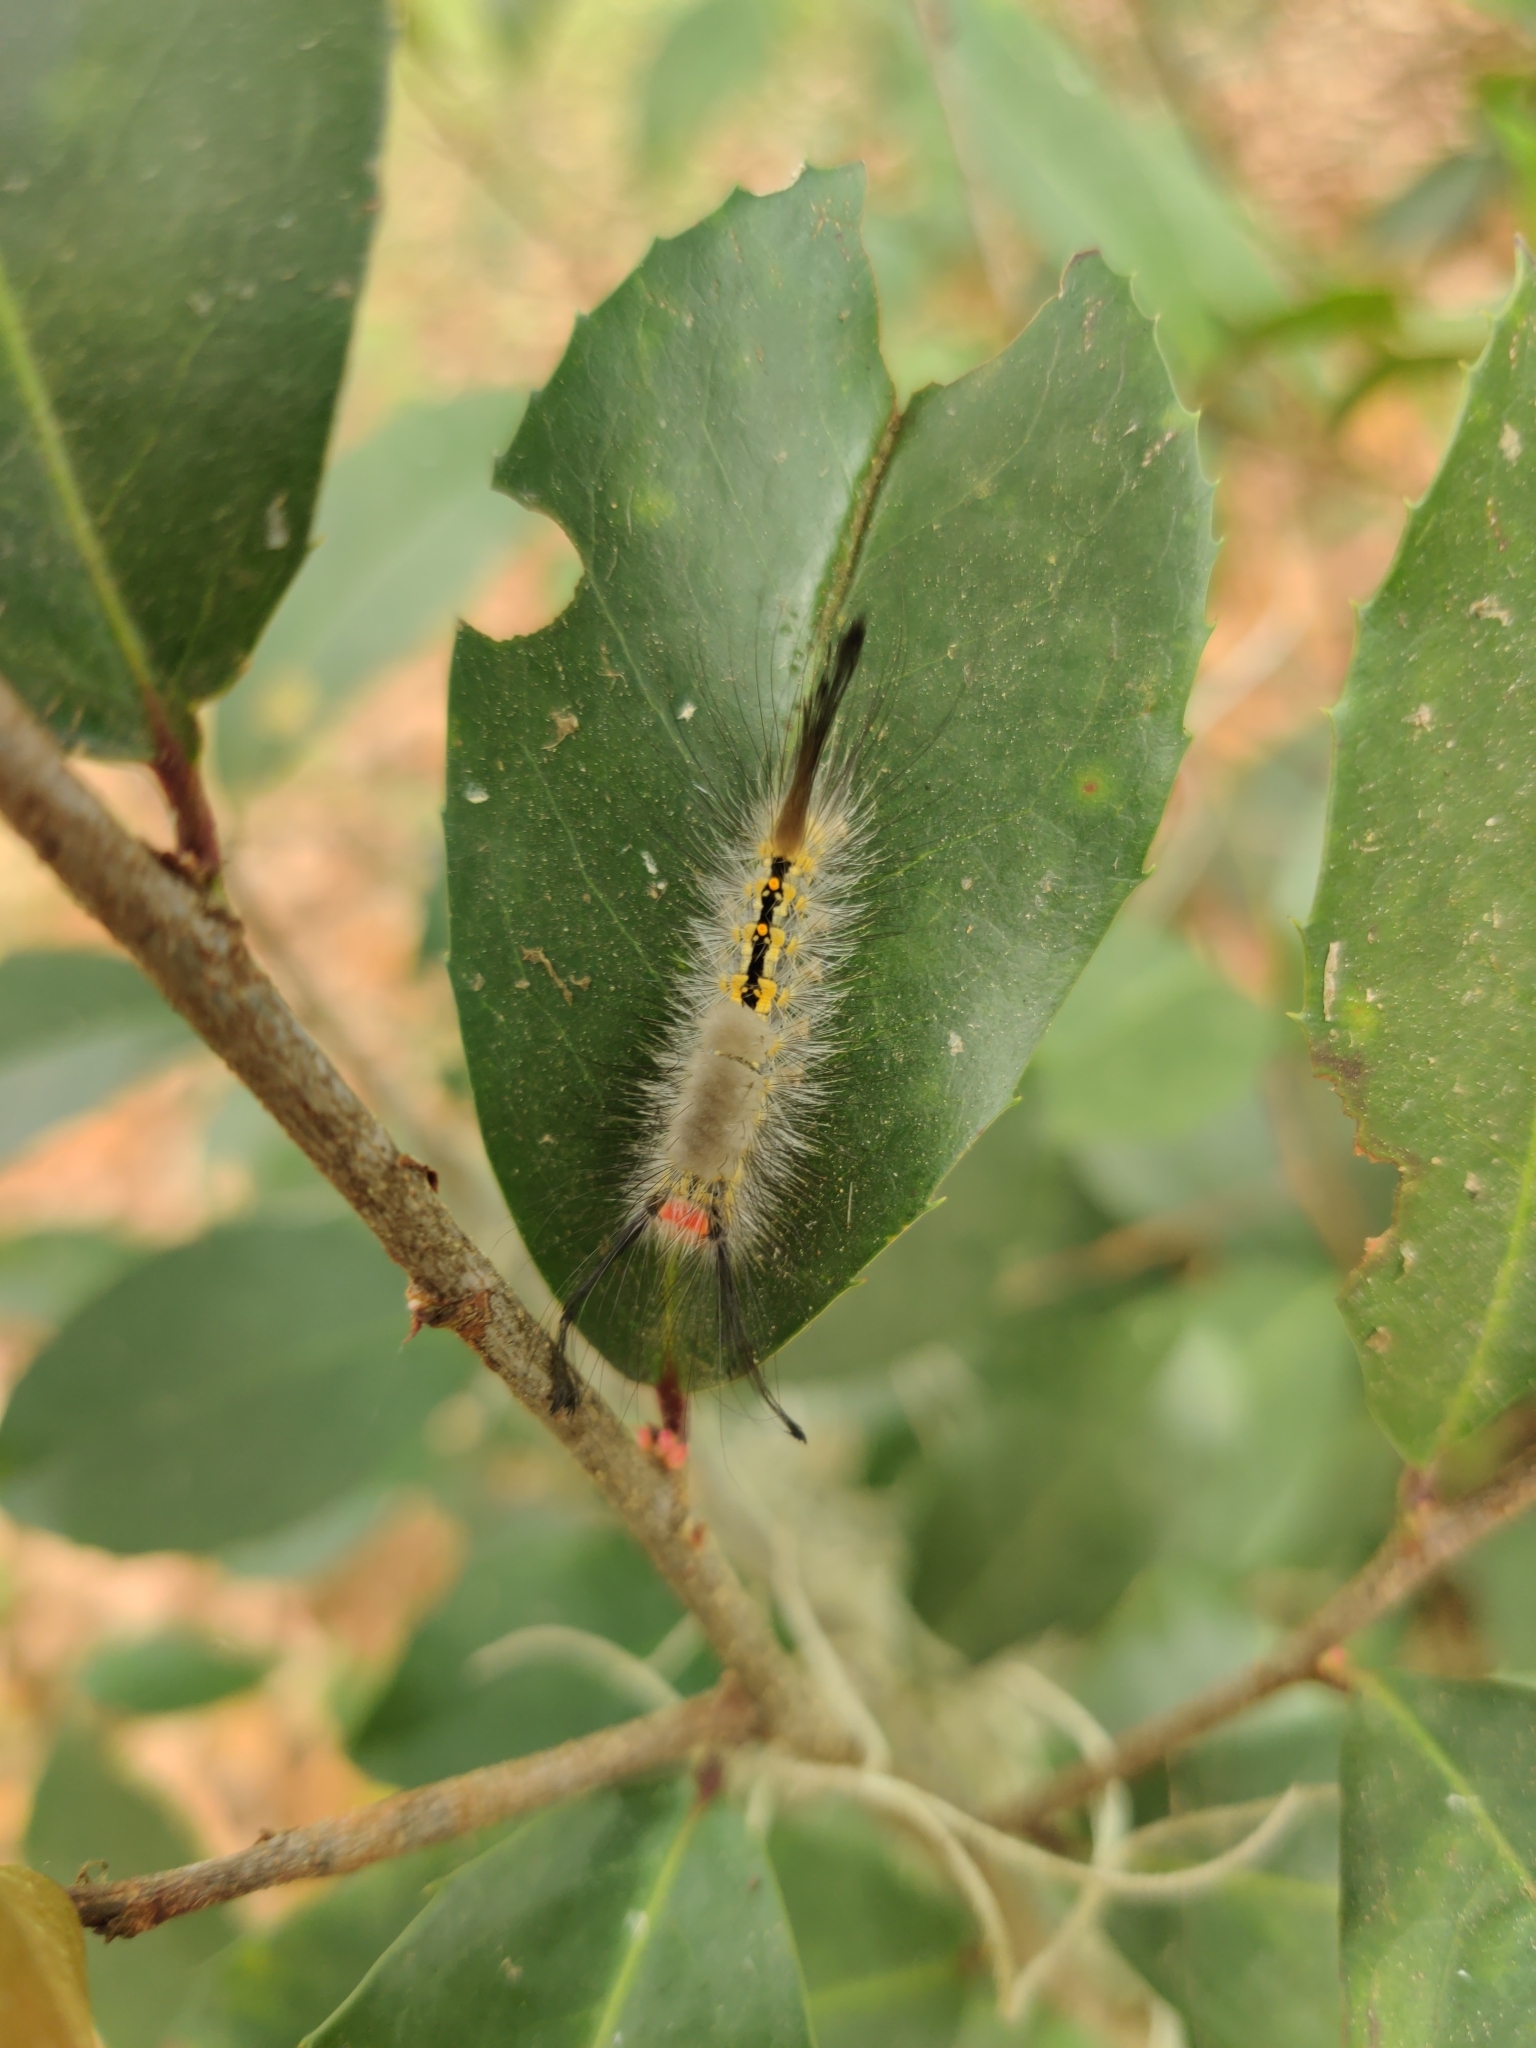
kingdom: Animalia
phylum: Arthropoda
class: Insecta
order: Lepidoptera
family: Erebidae
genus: Orgyia
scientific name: Orgyia detrita
